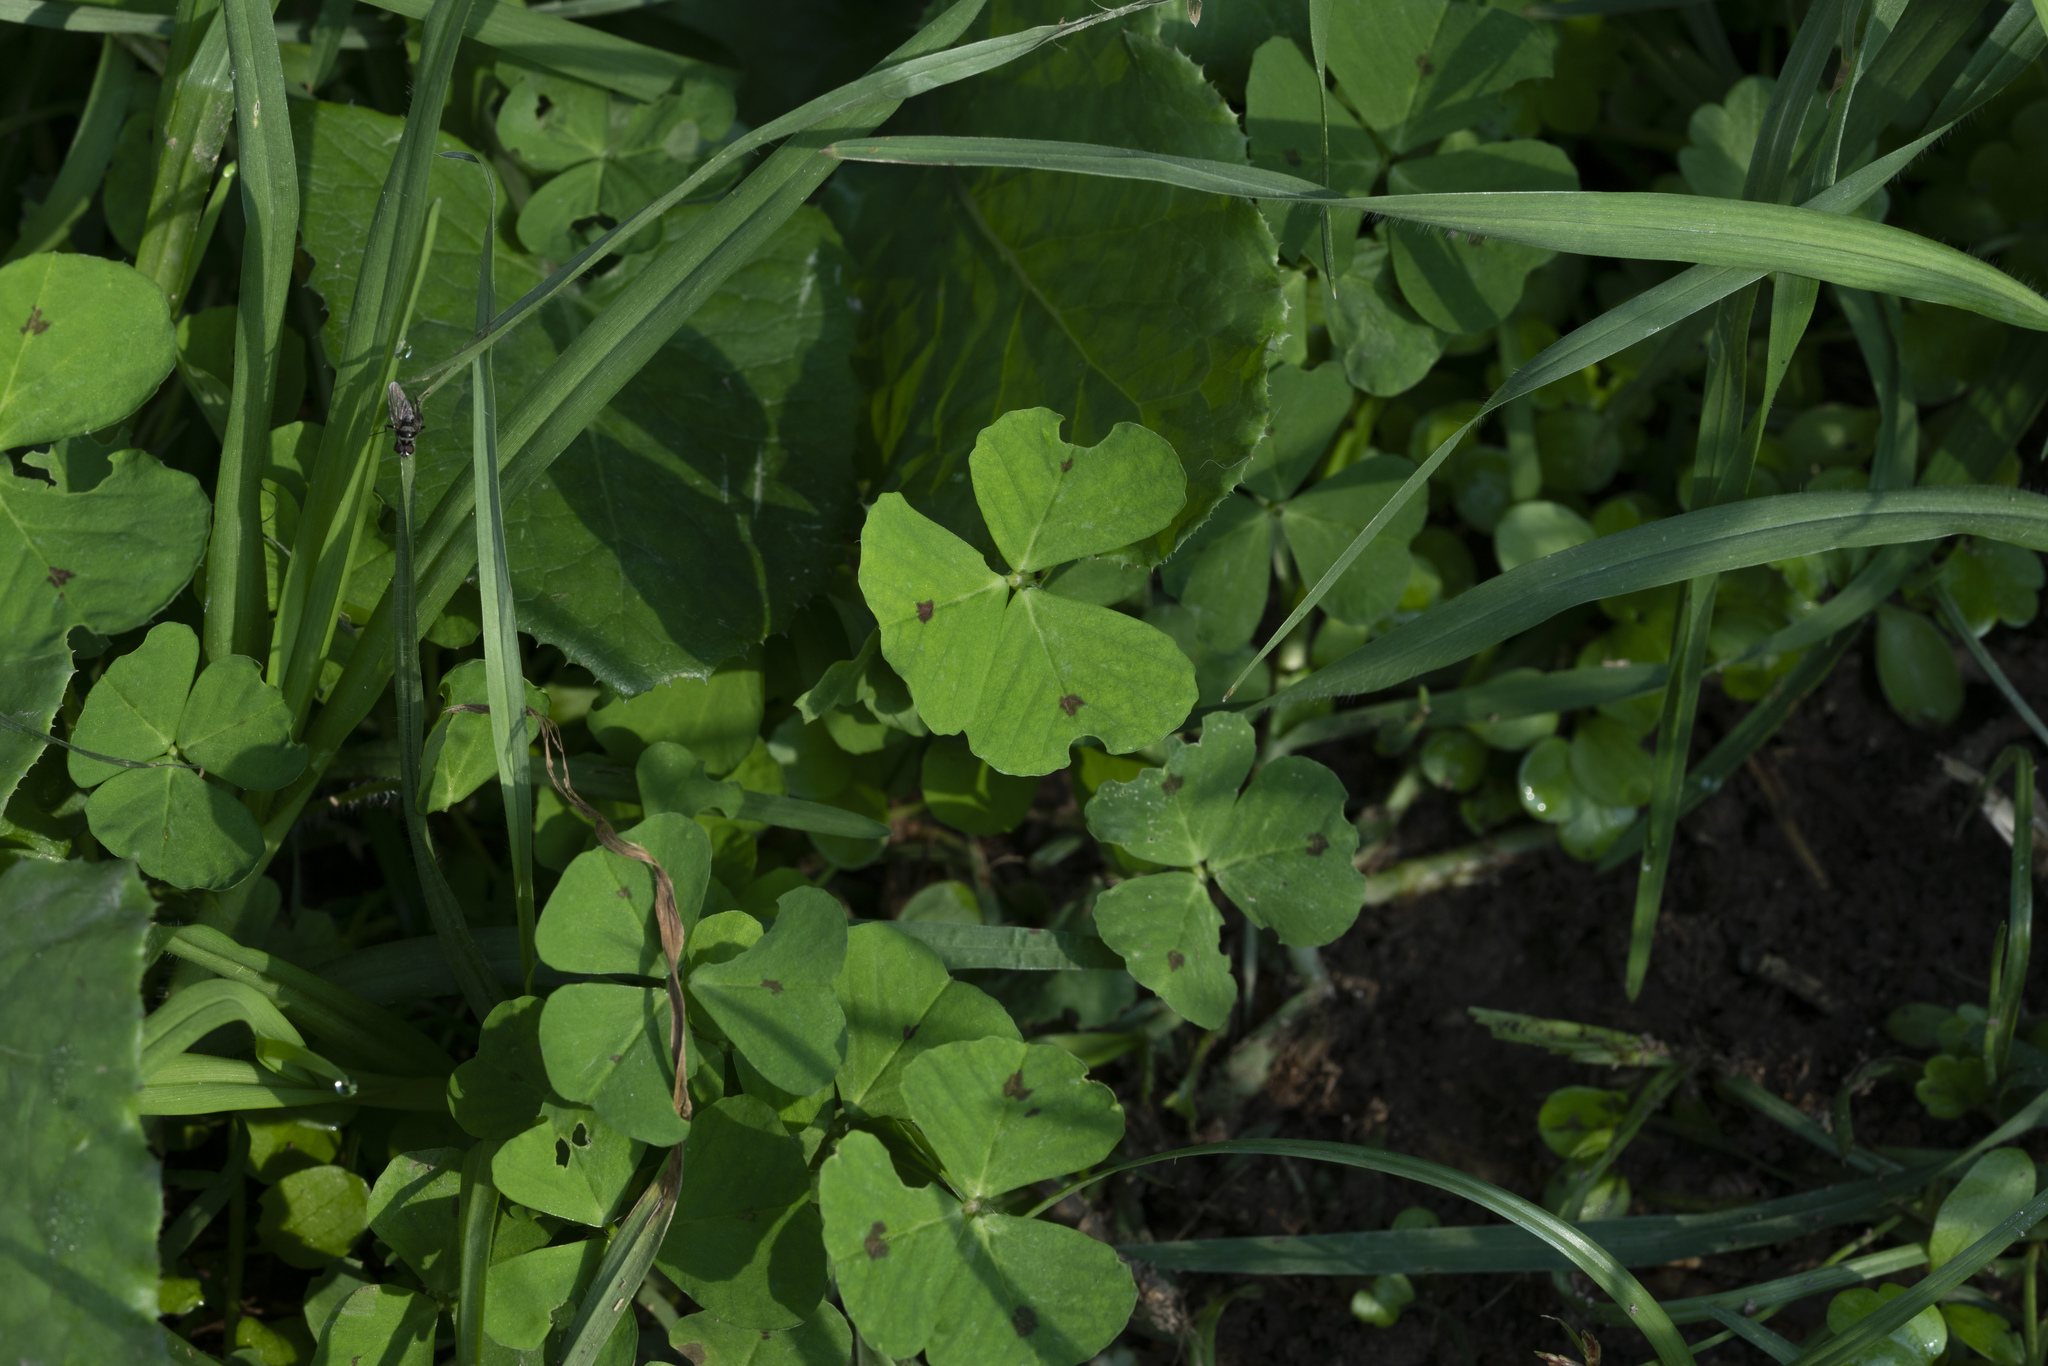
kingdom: Plantae
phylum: Tracheophyta
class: Magnoliopsida
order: Fabales
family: Fabaceae
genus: Medicago
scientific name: Medicago arabica
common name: Spotted medick
